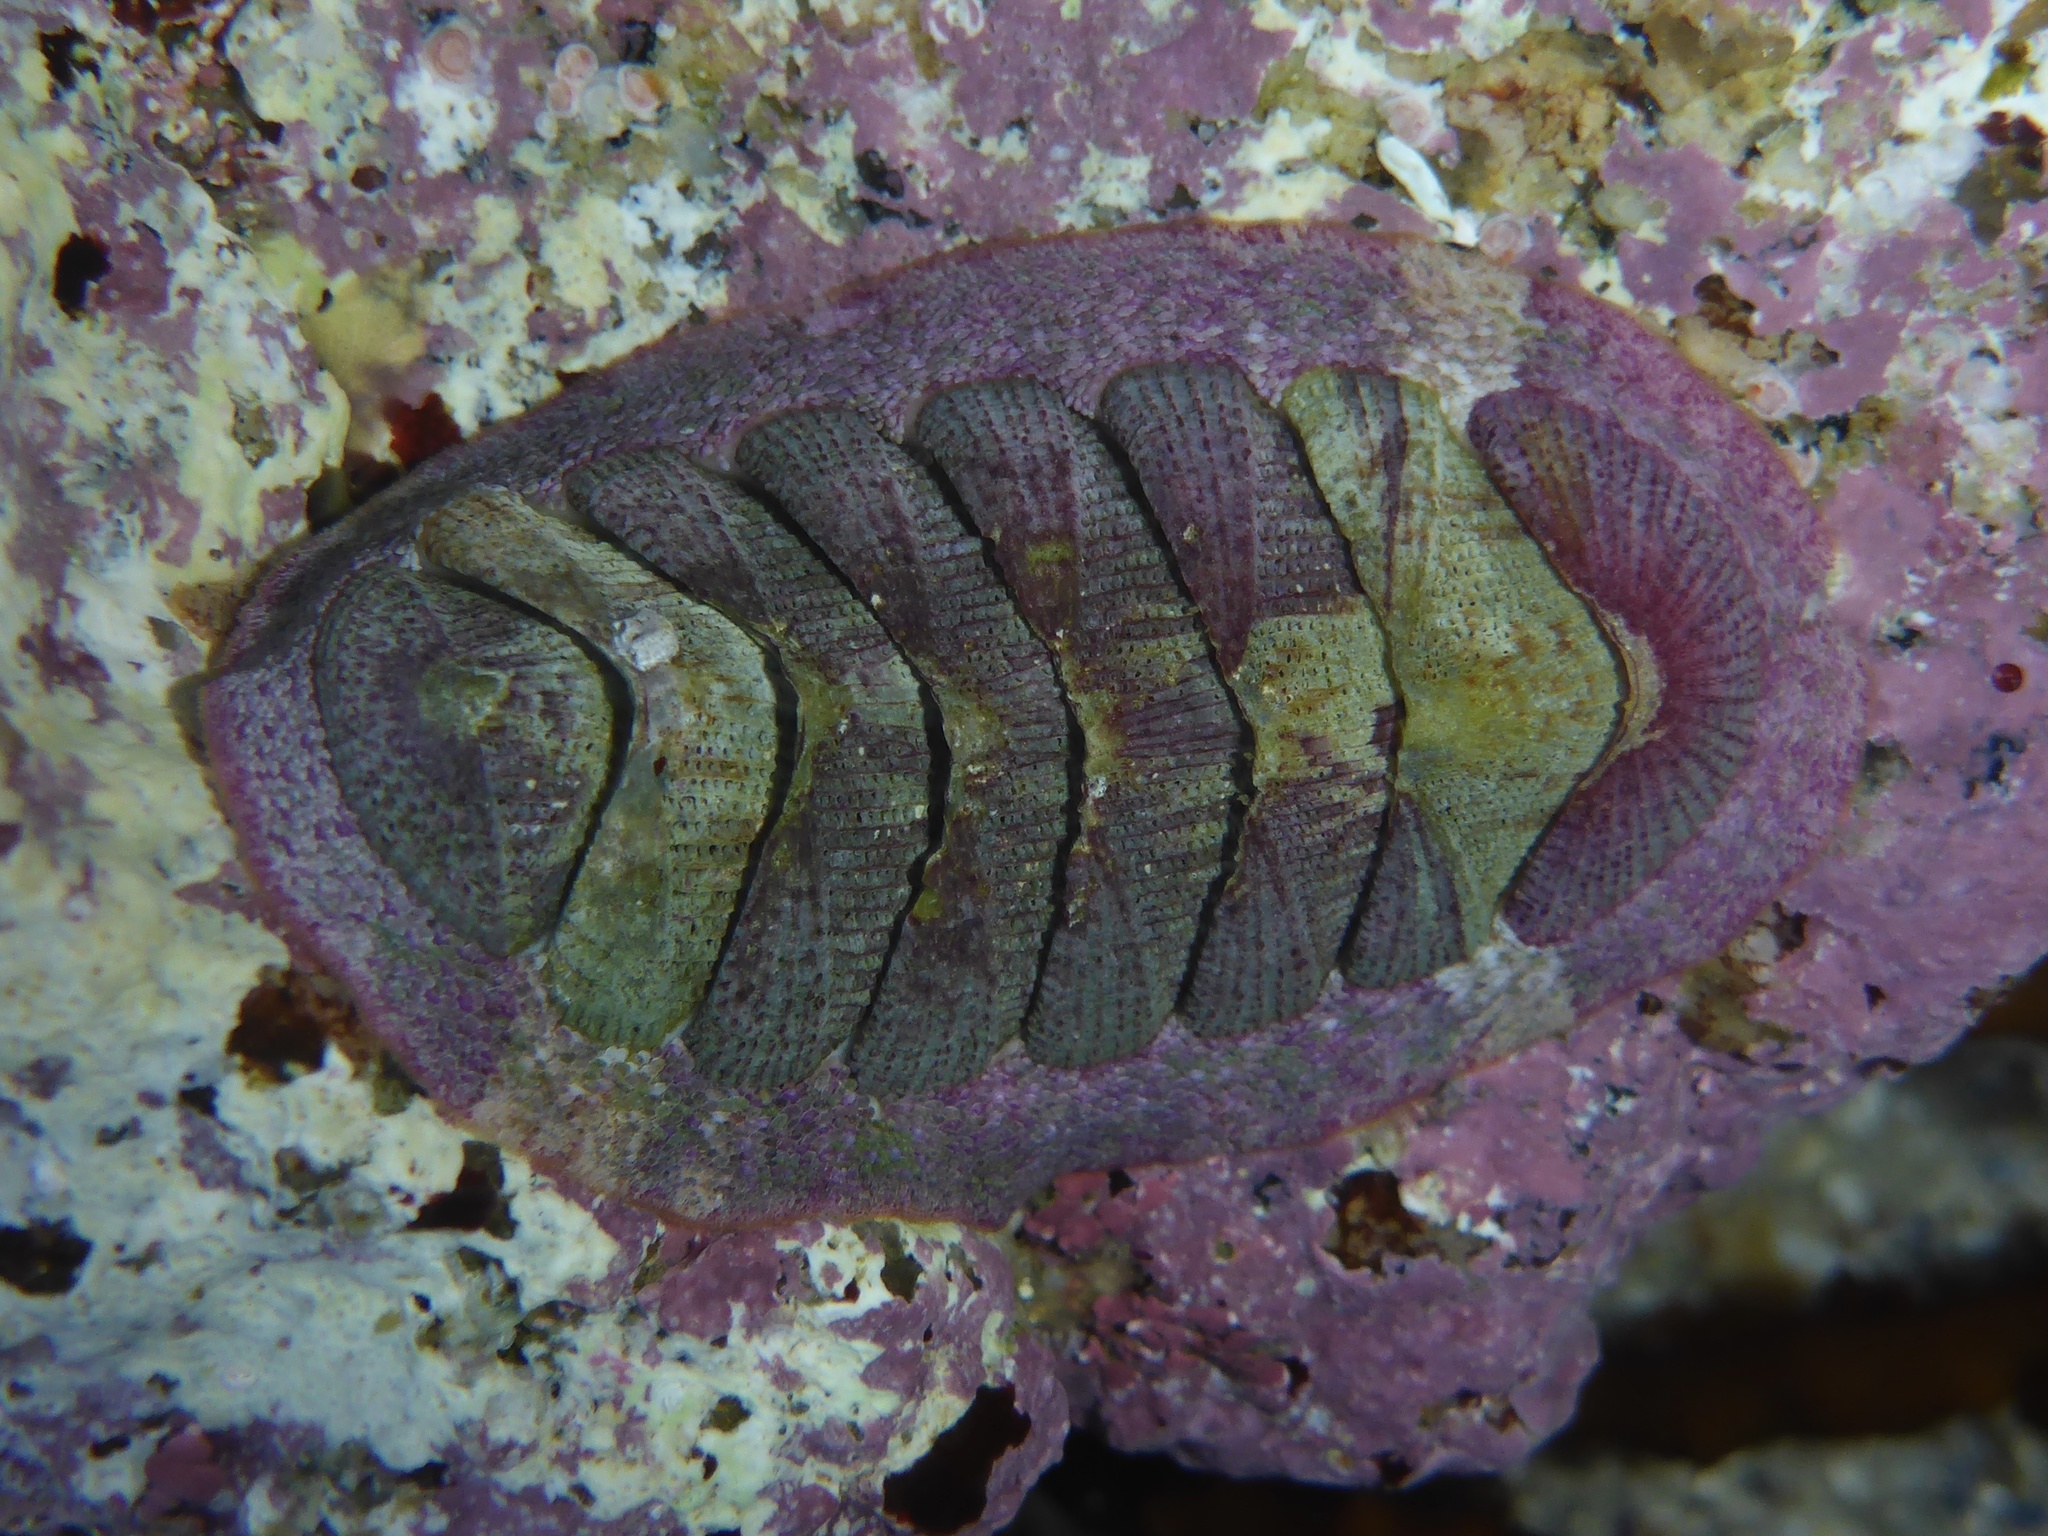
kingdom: Animalia
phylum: Mollusca
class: Polyplacophora
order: Chitonida
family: Ischnochitonidae
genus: Lepidozona
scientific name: Lepidozona mertensii
